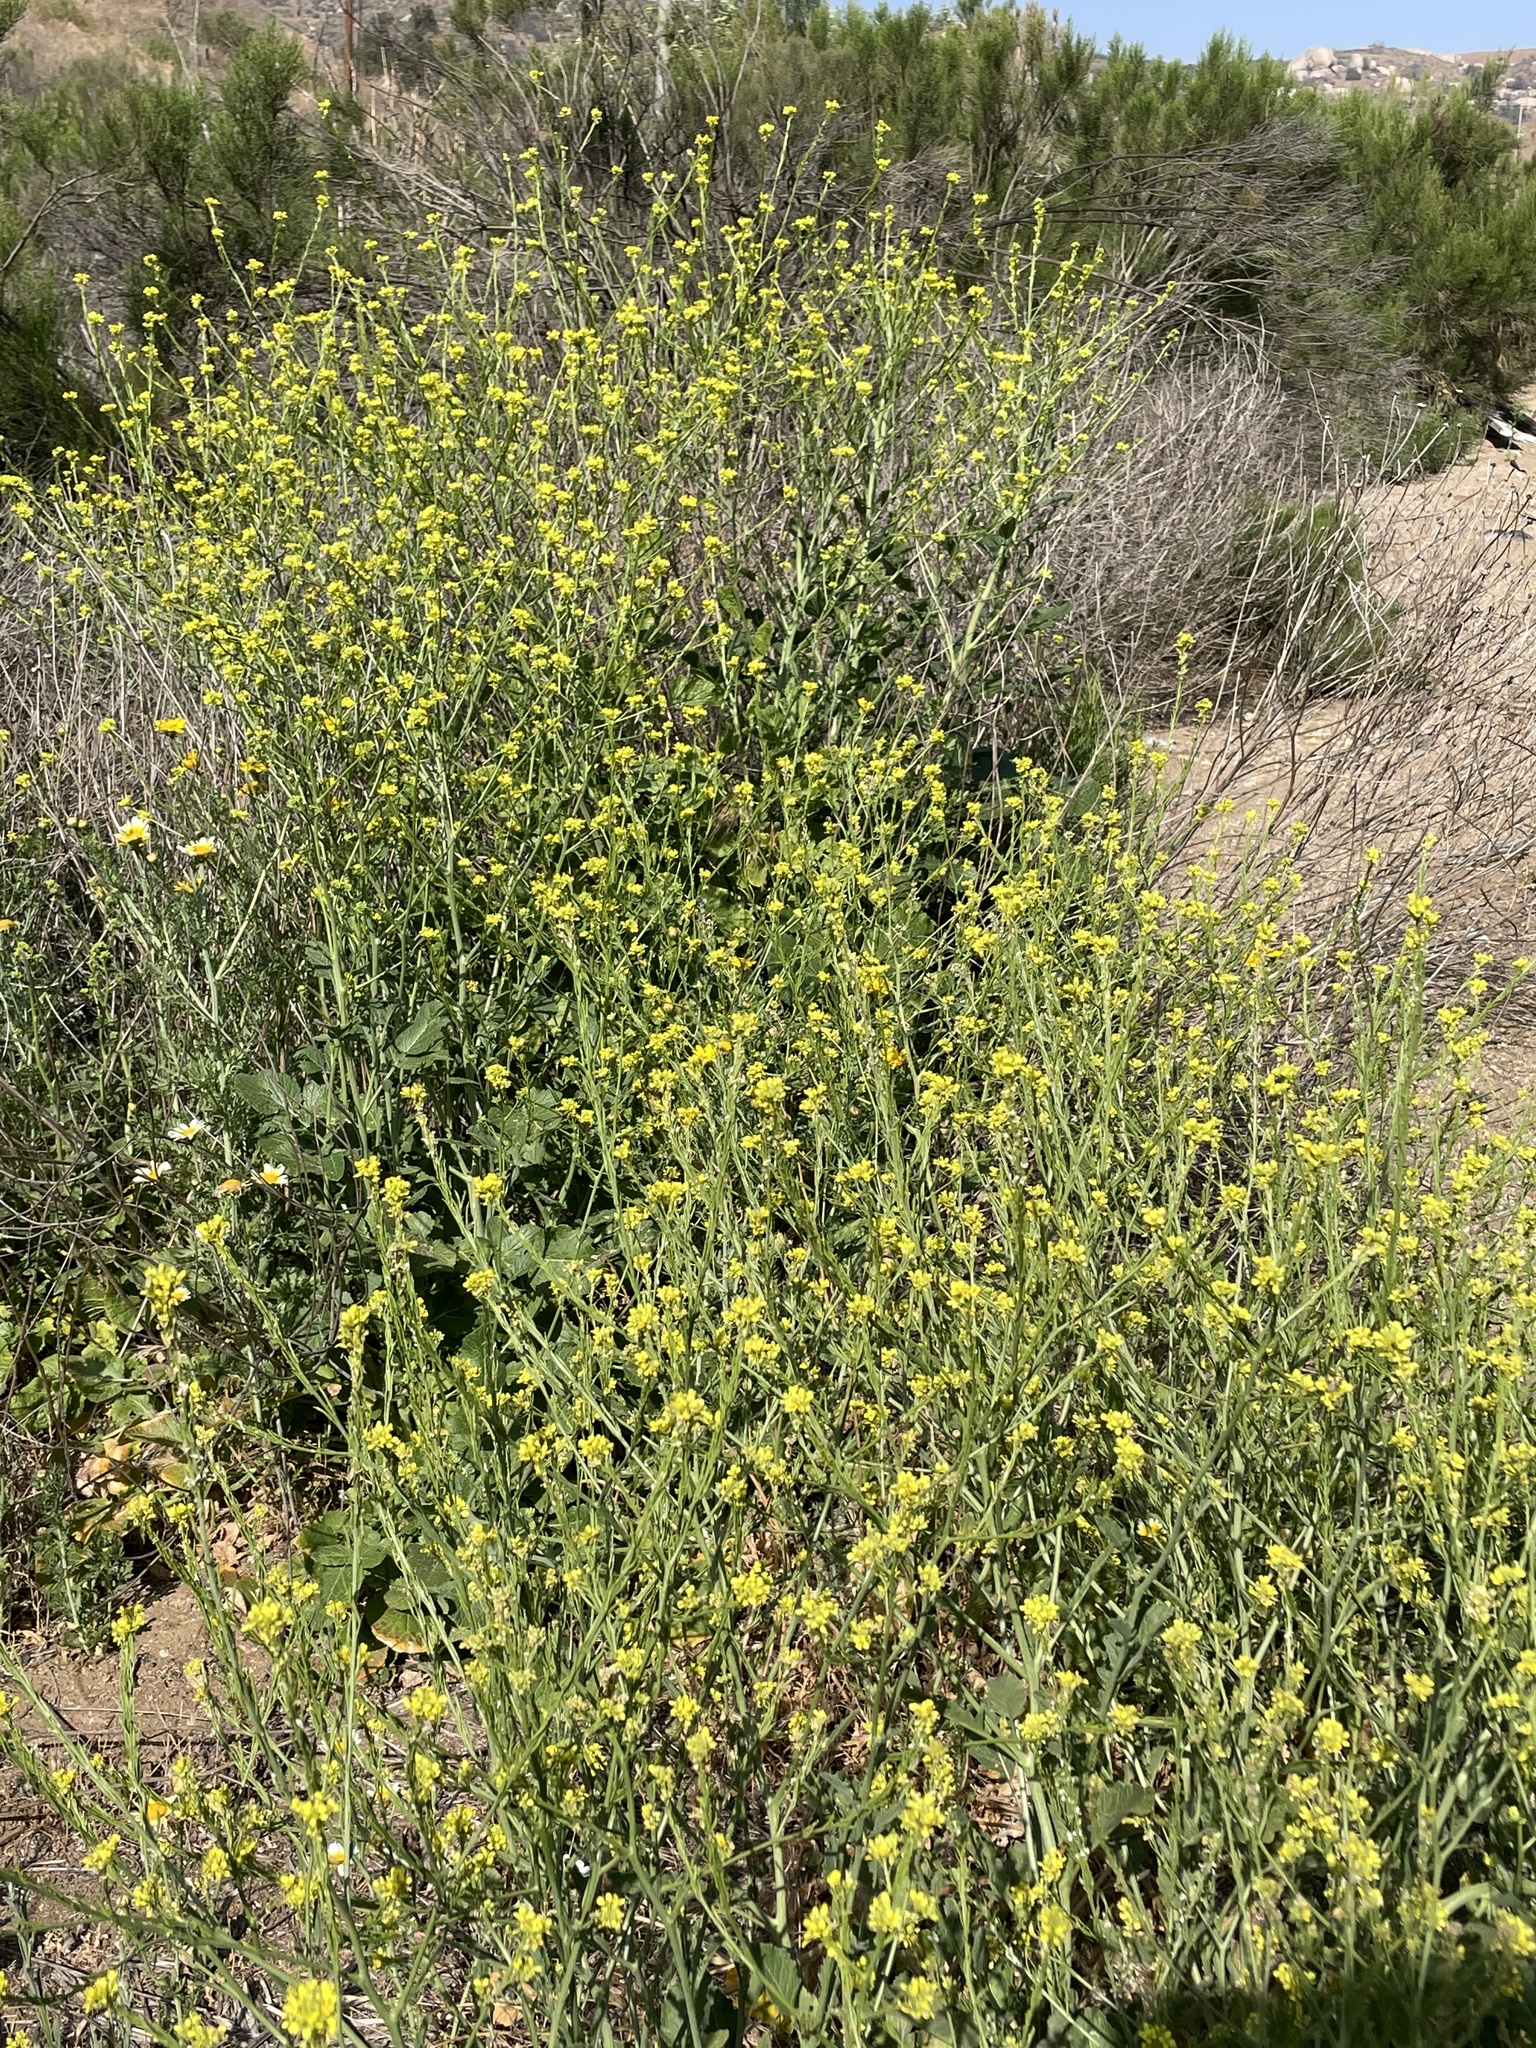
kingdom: Plantae
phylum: Tracheophyta
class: Magnoliopsida
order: Brassicales
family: Brassicaceae
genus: Hirschfeldia
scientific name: Hirschfeldia incana
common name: Hoary mustard
